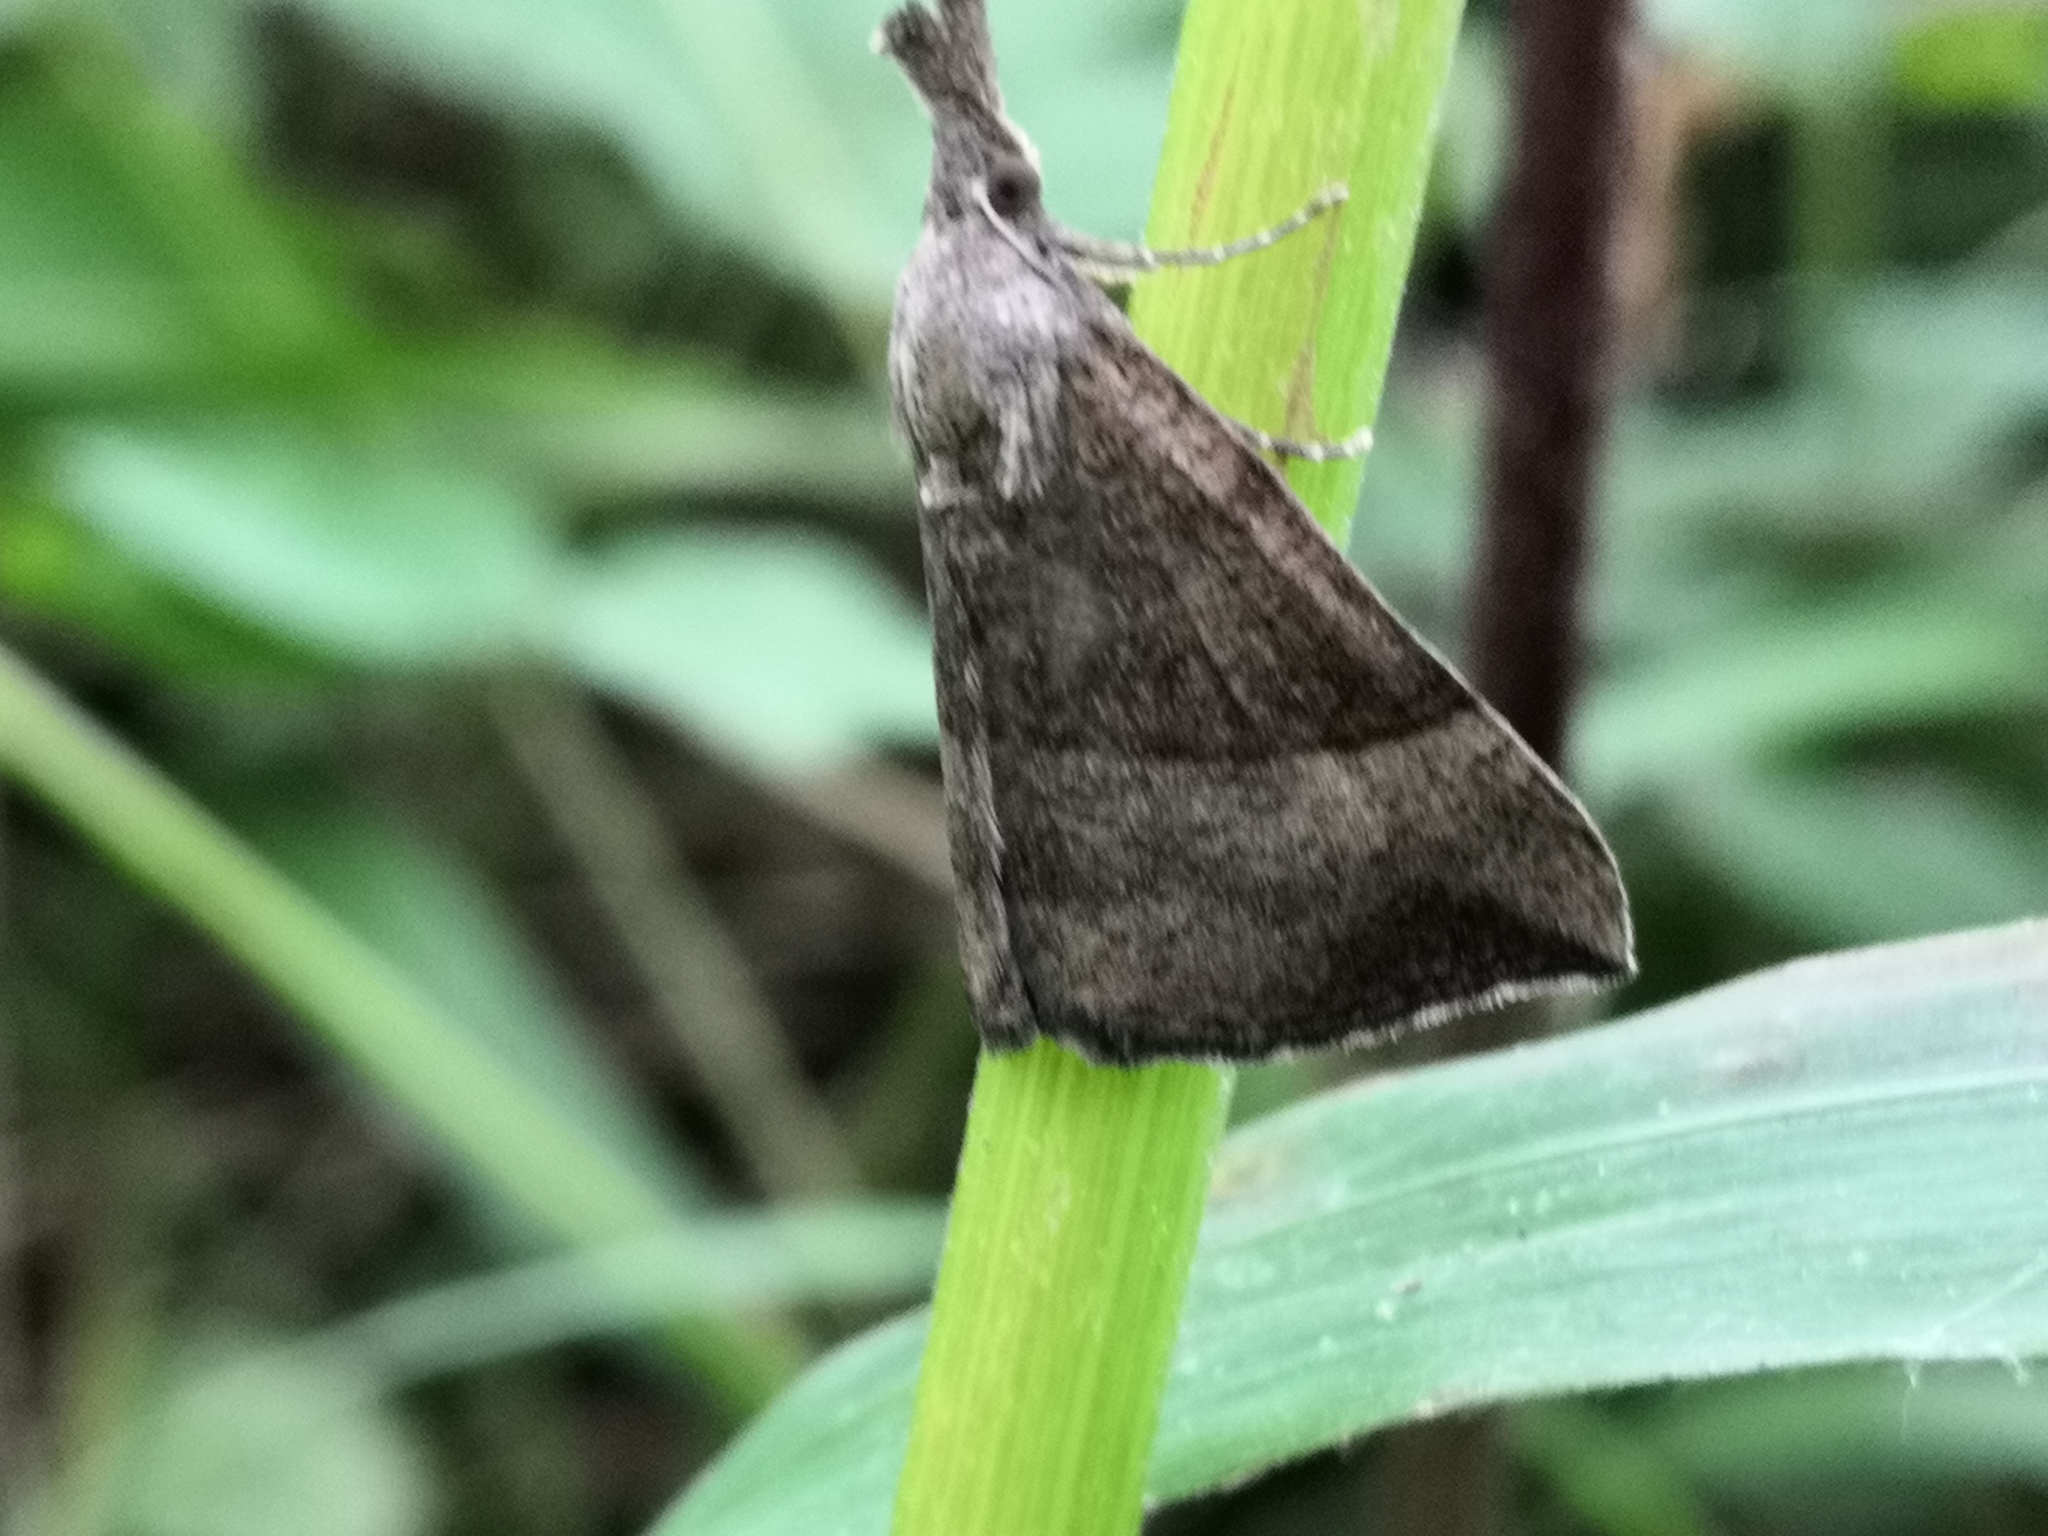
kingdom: Animalia
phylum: Arthropoda
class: Insecta
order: Lepidoptera
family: Erebidae
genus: Hypena
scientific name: Hypena proboscidalis
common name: Snout
